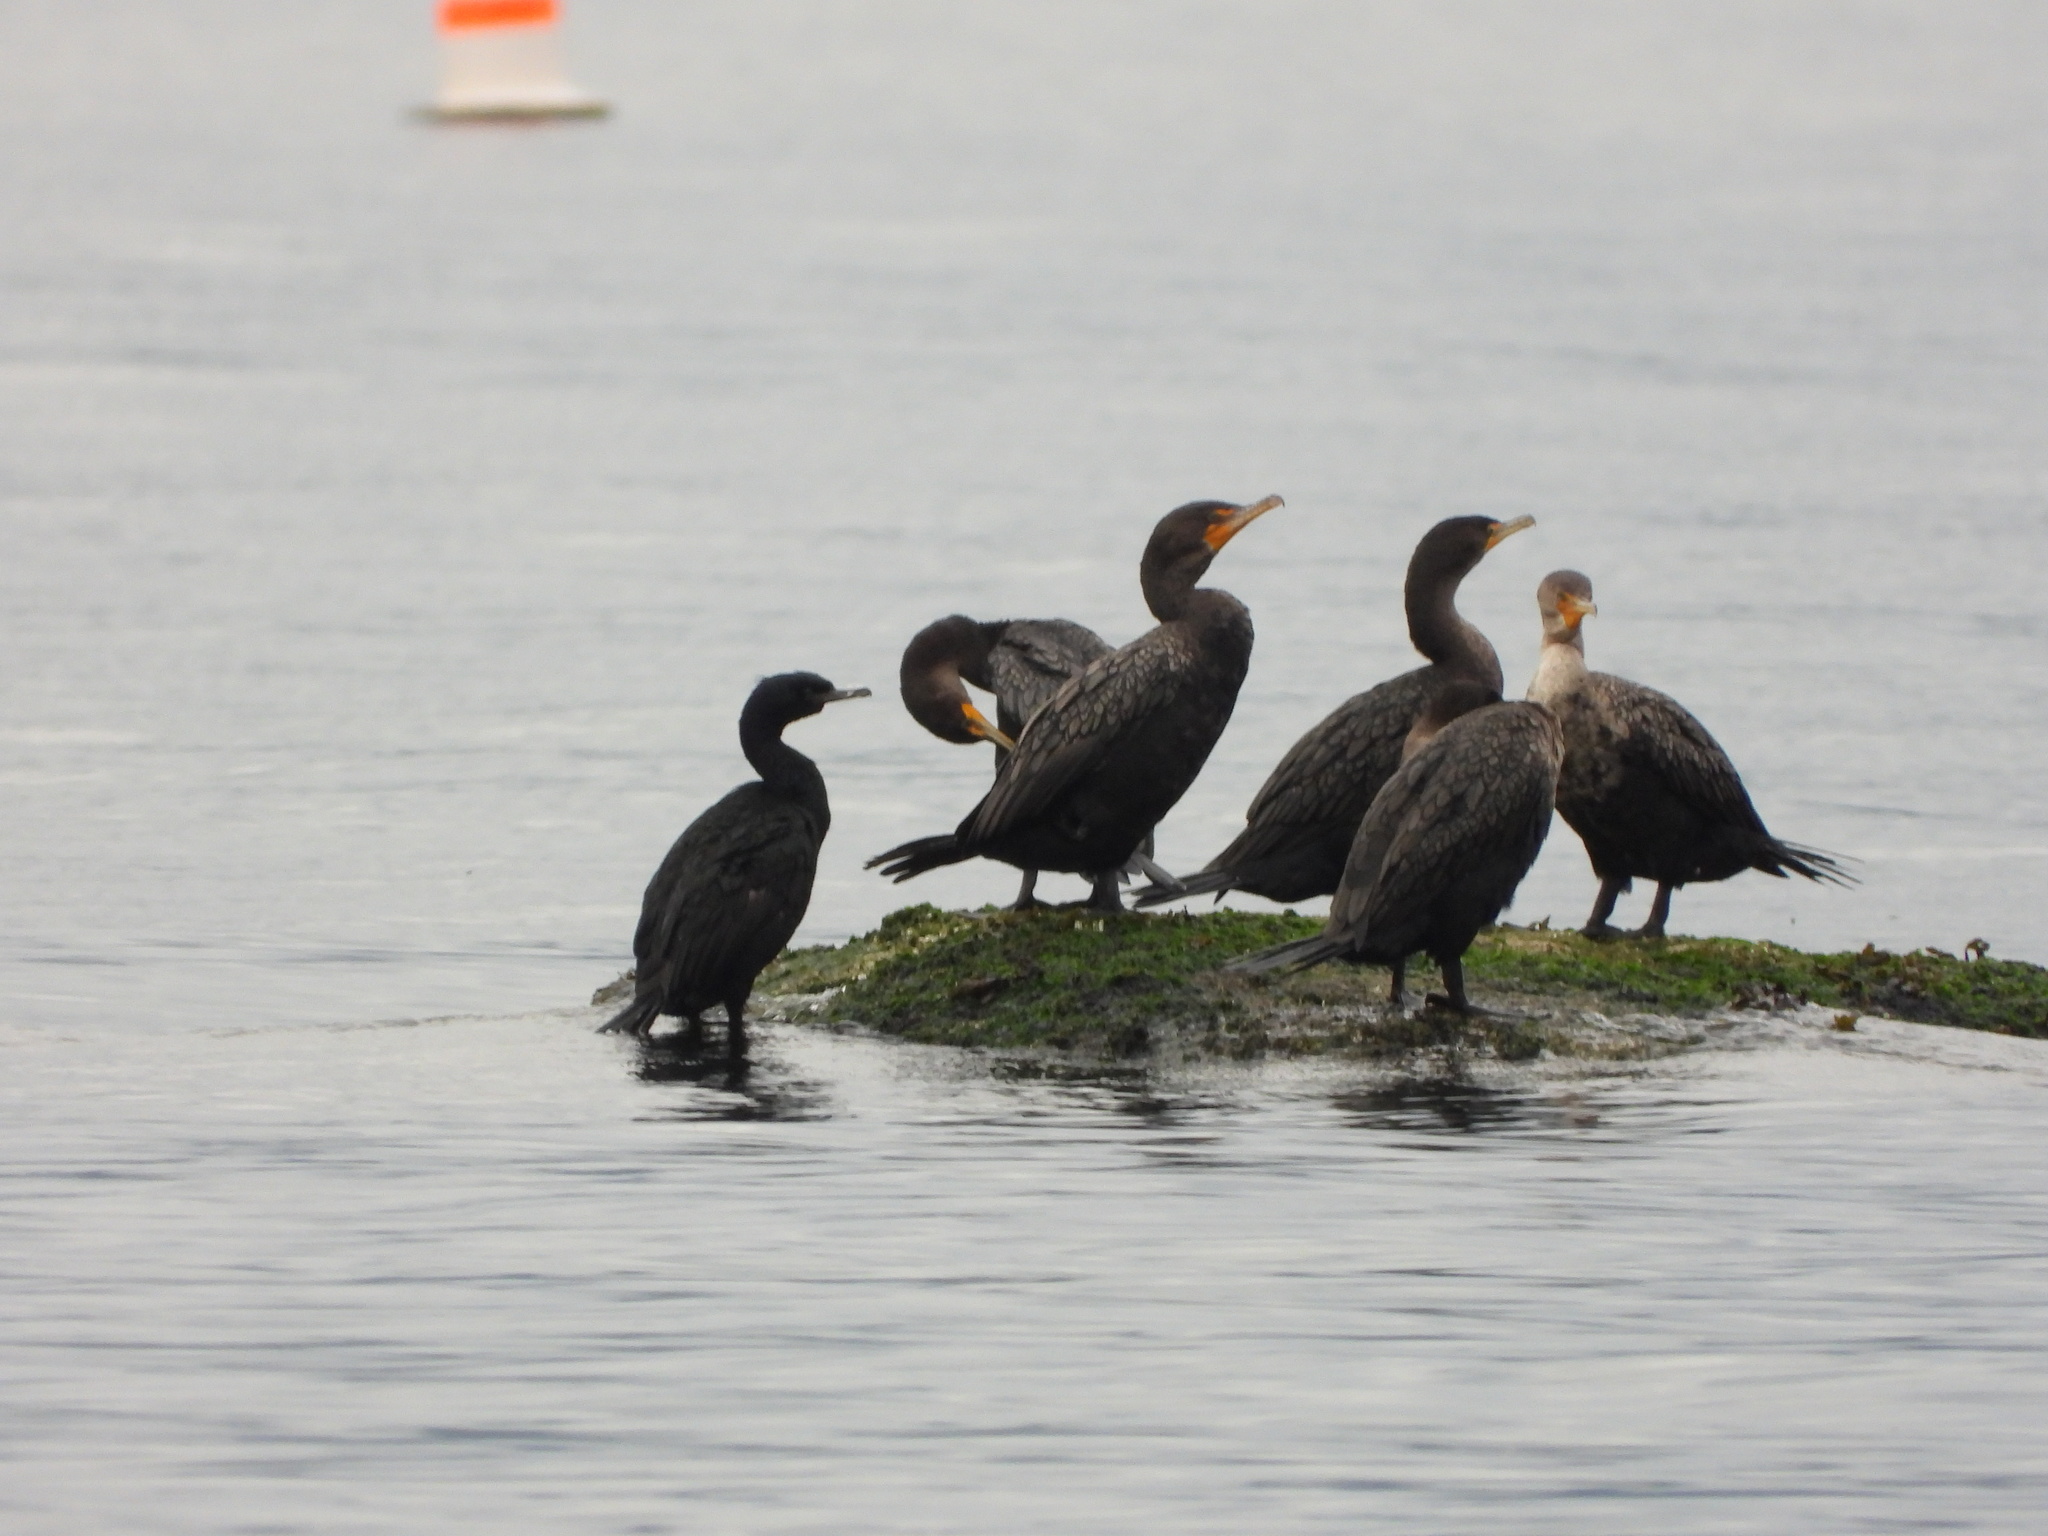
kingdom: Animalia
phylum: Chordata
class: Aves
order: Suliformes
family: Phalacrocoracidae
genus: Phalacrocorax
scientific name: Phalacrocorax pelagicus
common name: Pelagic cormorant
